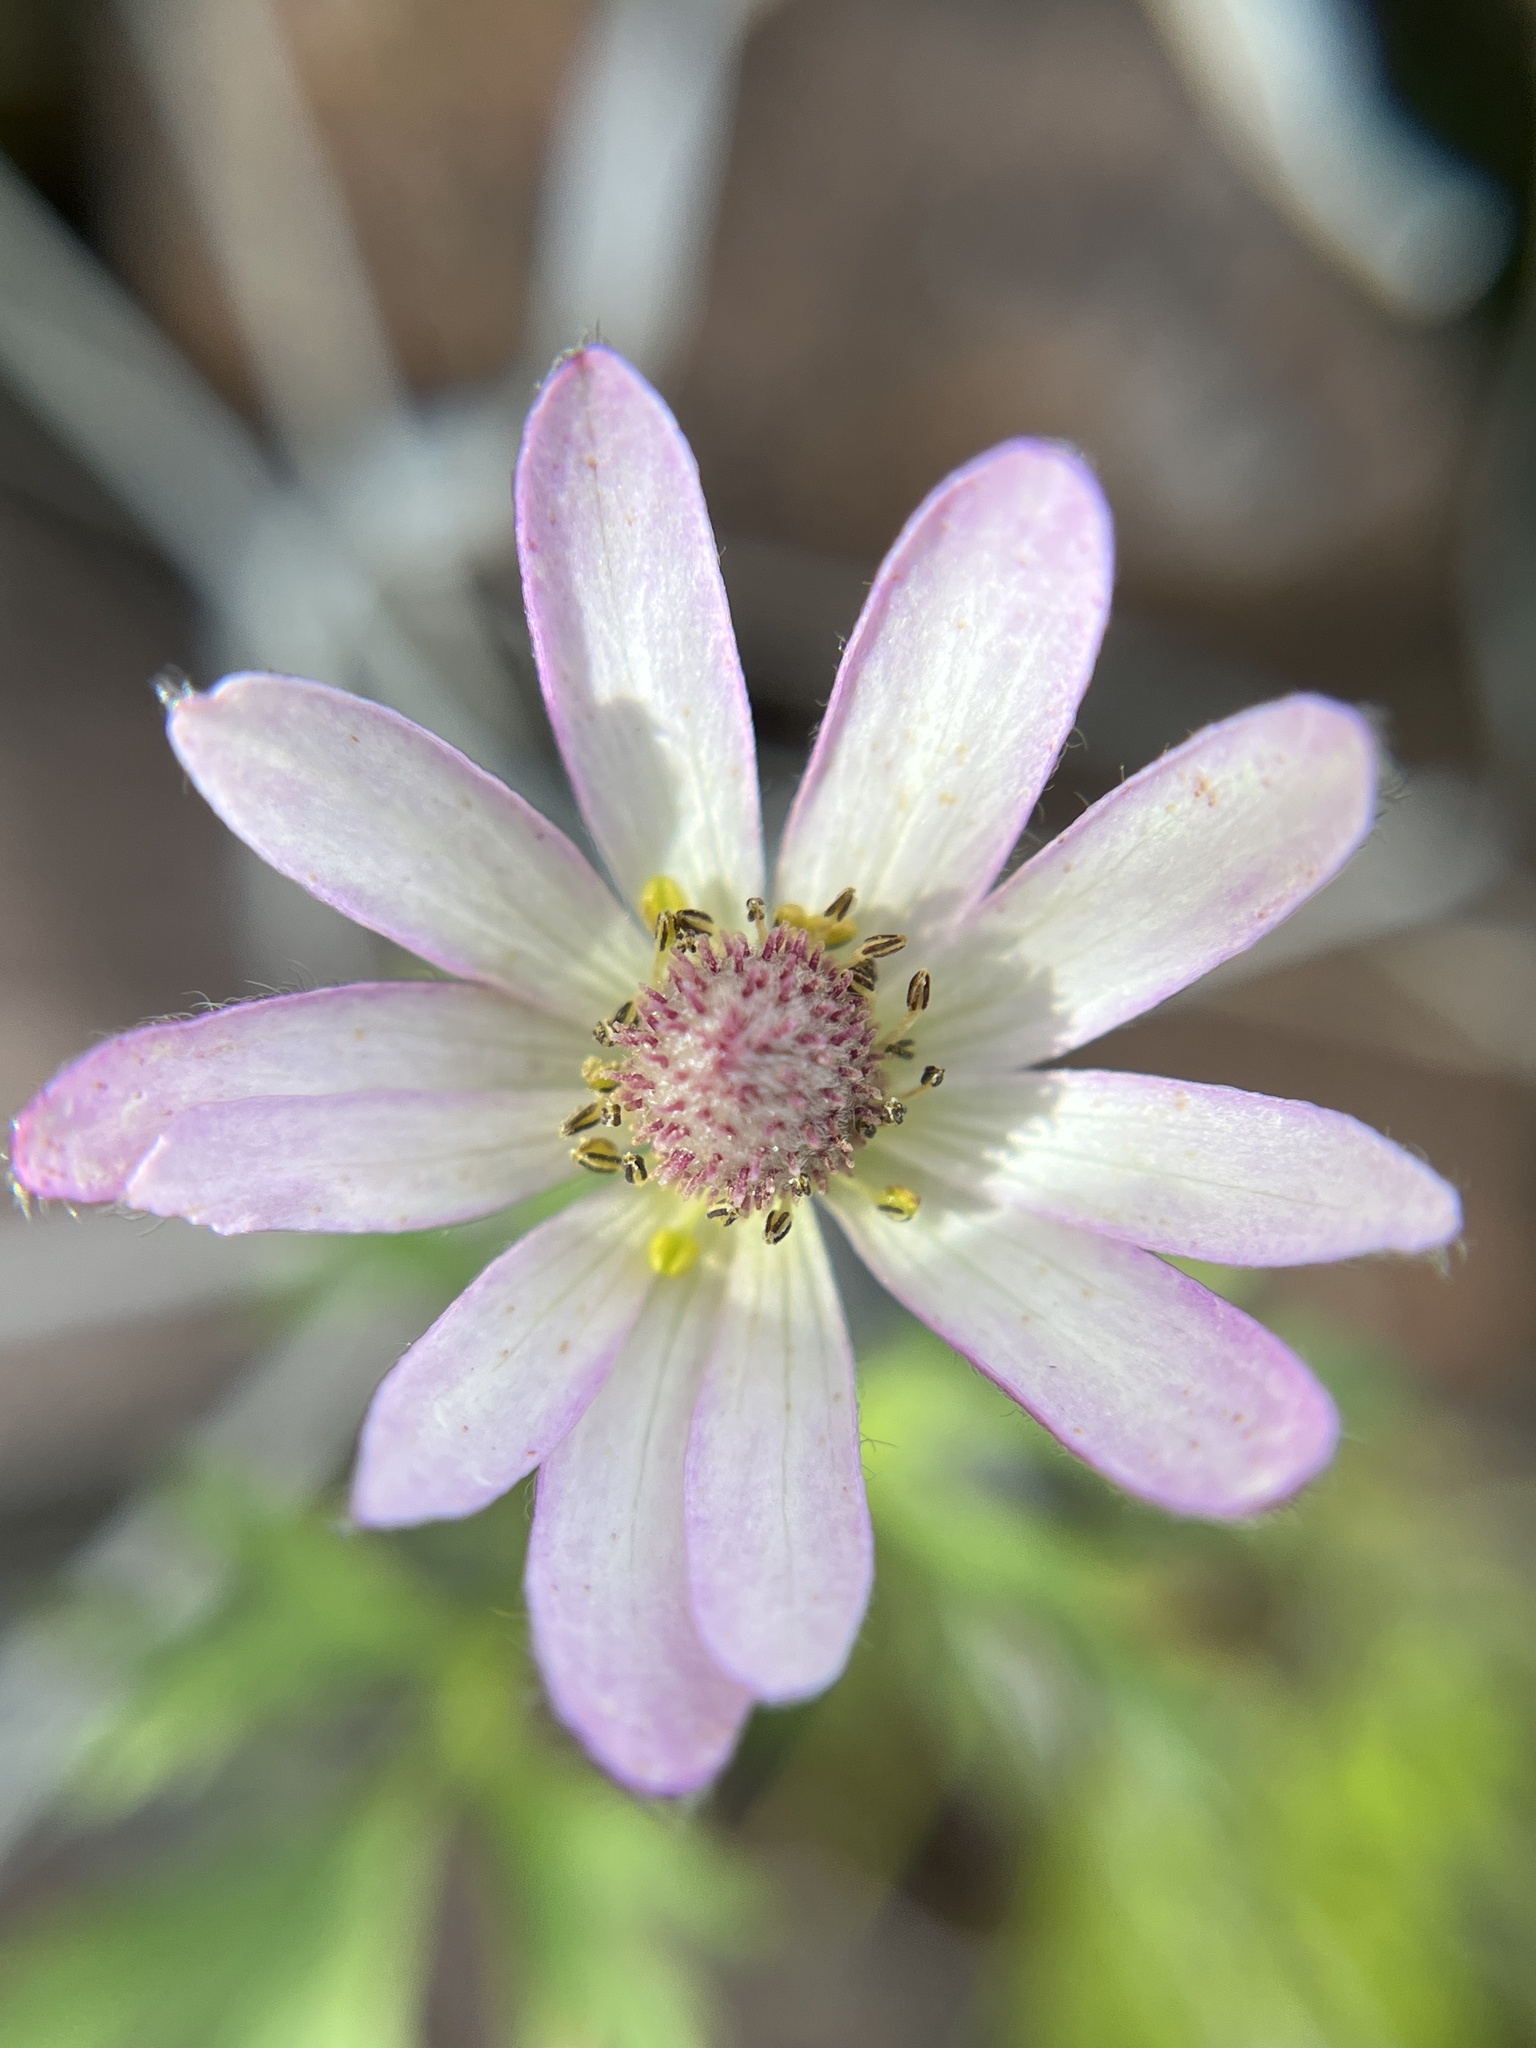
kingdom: Plantae
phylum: Tracheophyta
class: Magnoliopsida
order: Ranunculales
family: Ranunculaceae
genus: Anemone
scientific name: Anemone tuberosa
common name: Desert anemone
